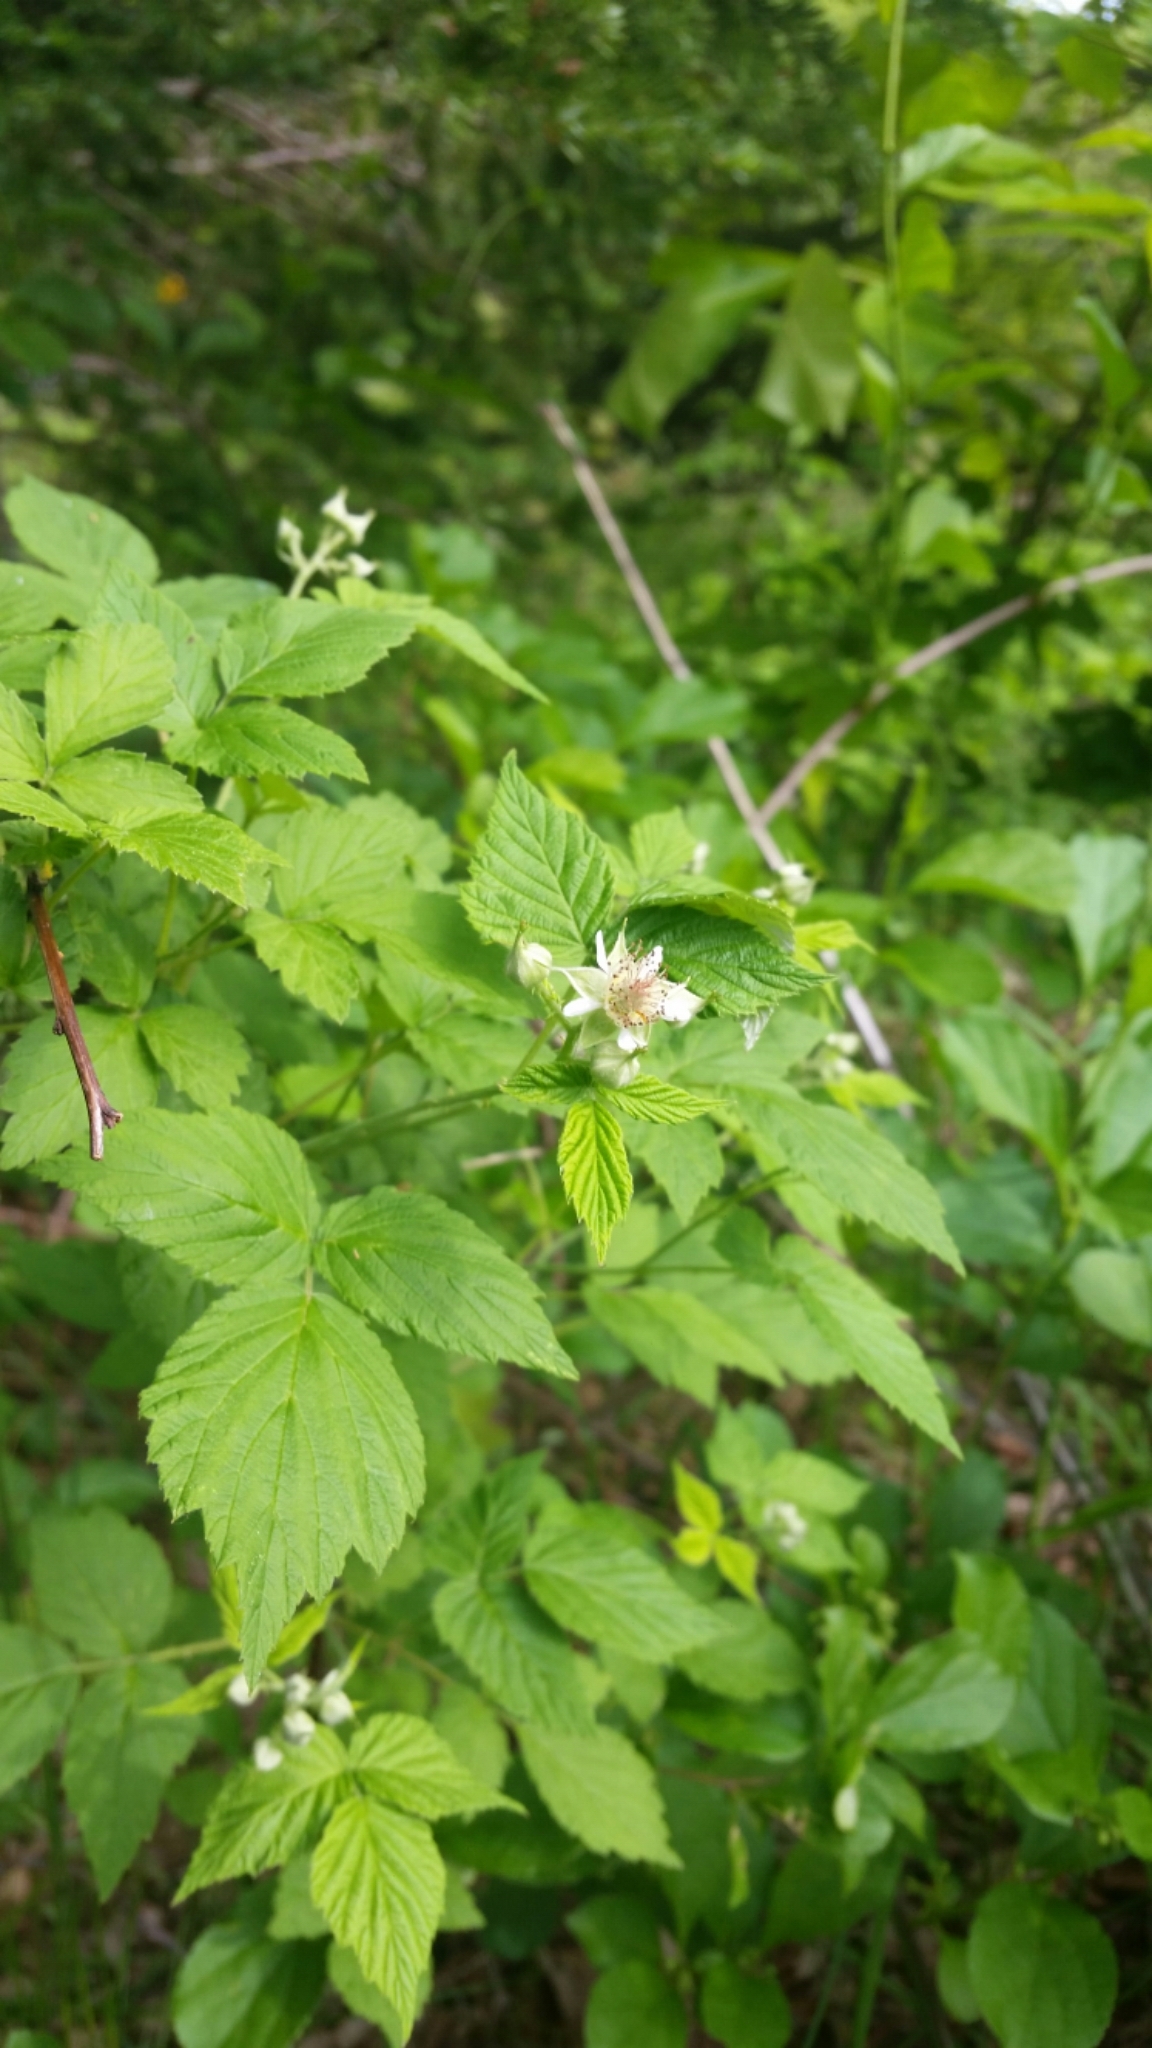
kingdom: Plantae
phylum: Tracheophyta
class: Magnoliopsida
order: Rosales
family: Rosaceae
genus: Rubus
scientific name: Rubus occidentalis
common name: Black raspberry
